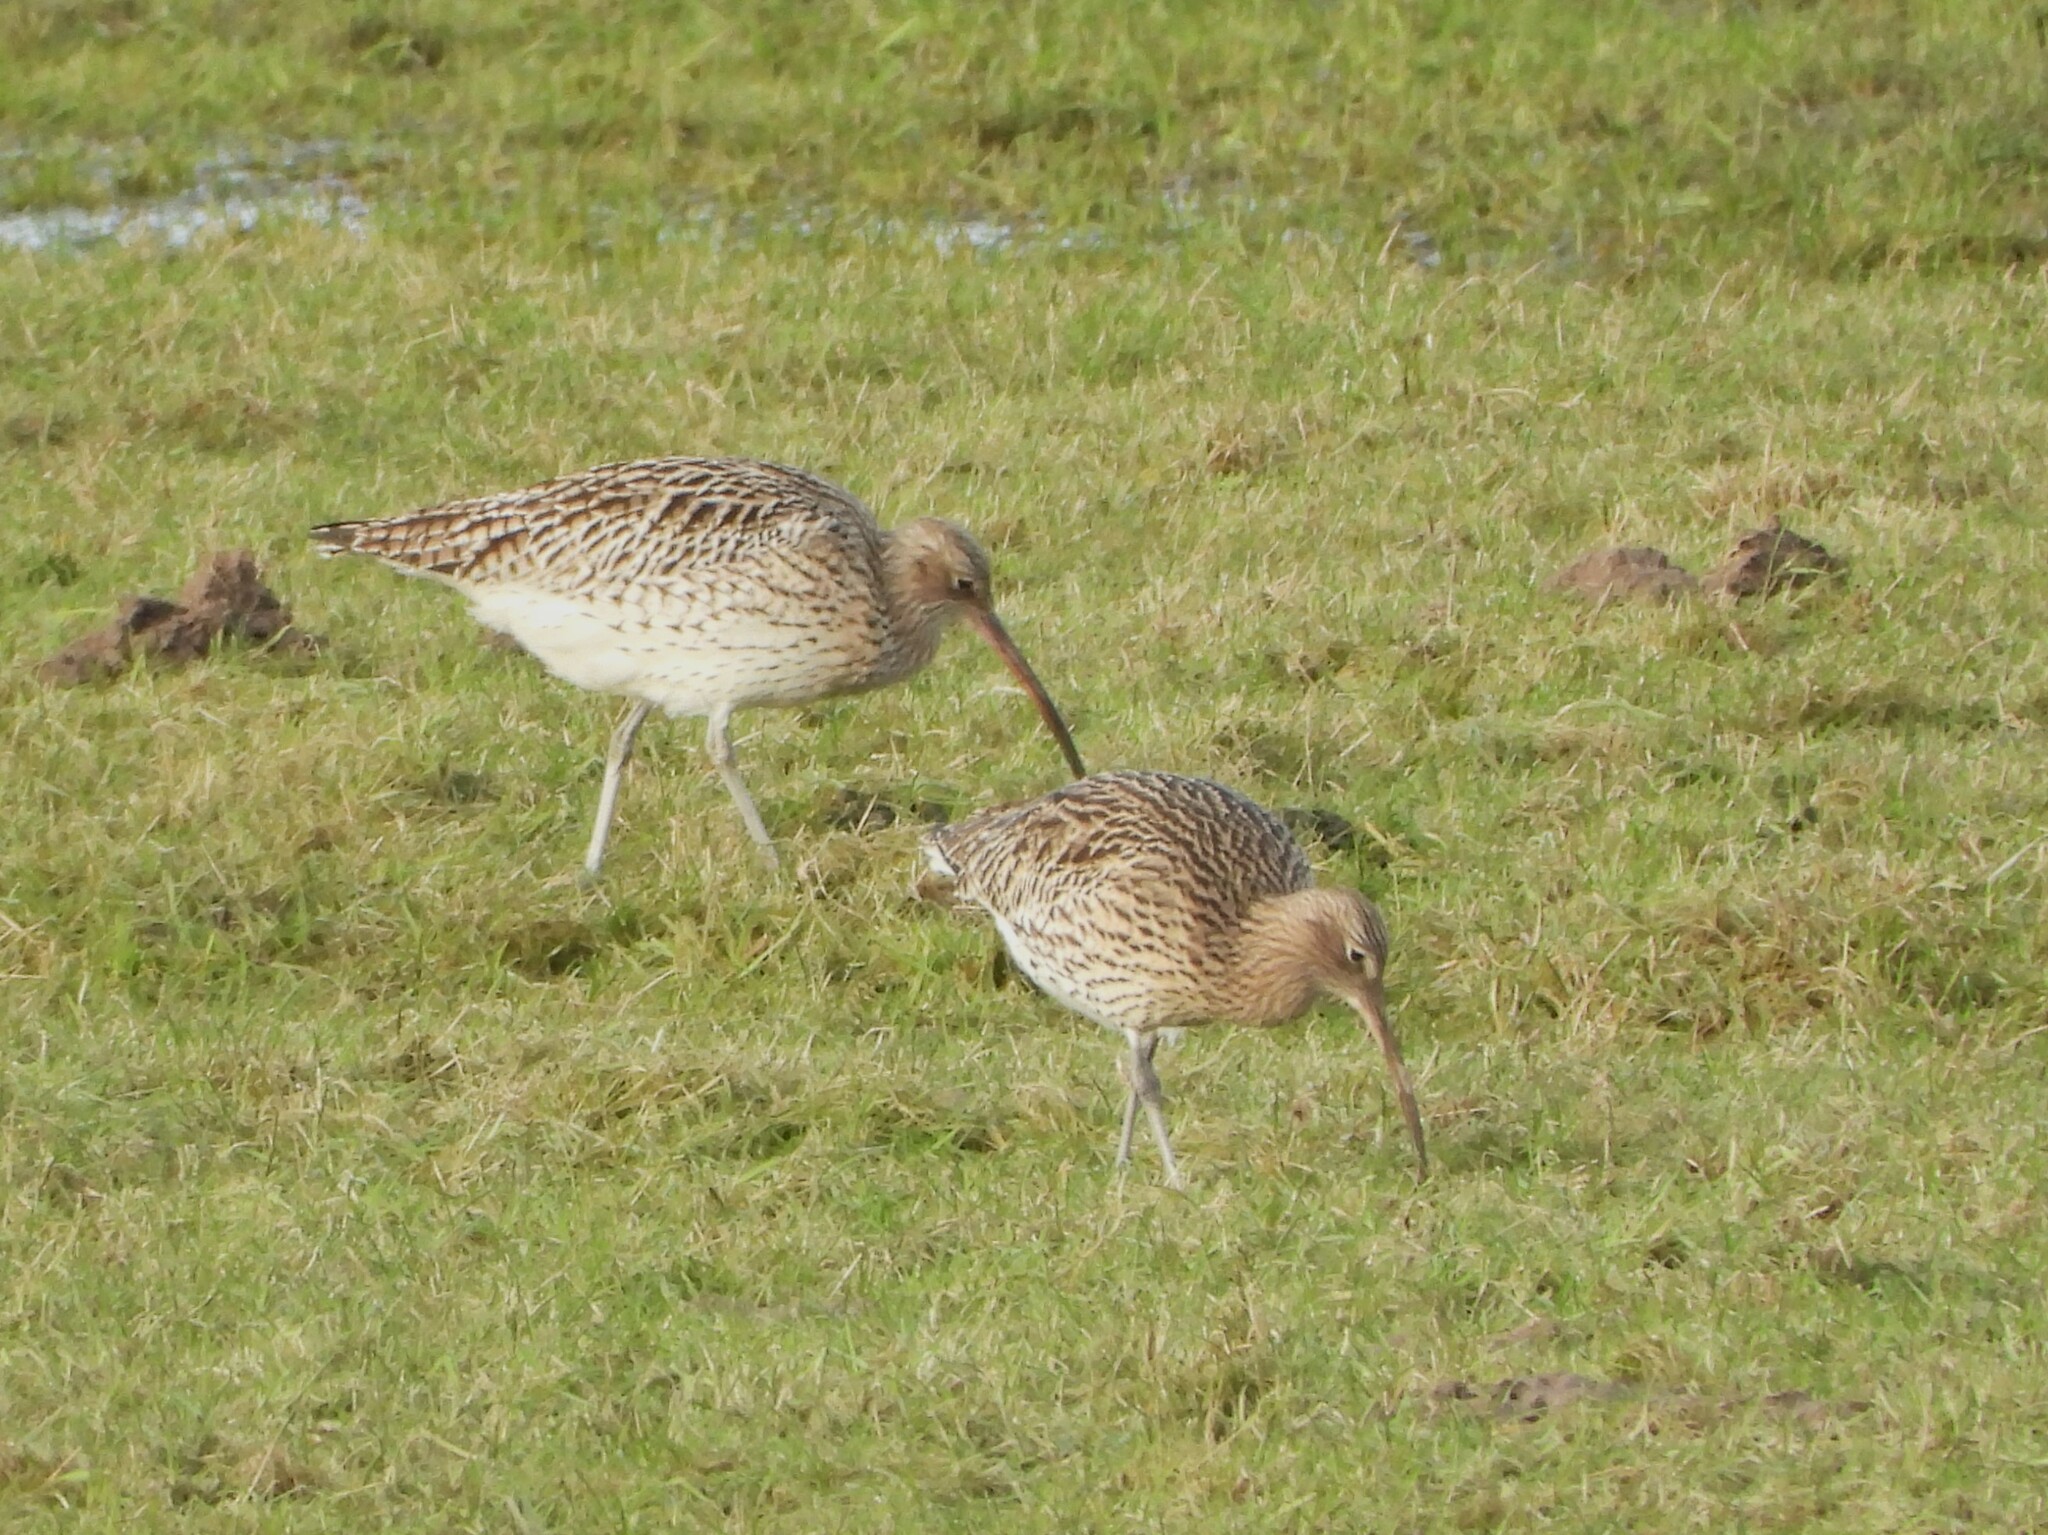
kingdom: Animalia
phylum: Chordata
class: Aves
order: Charadriiformes
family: Scolopacidae
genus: Numenius
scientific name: Numenius arquata
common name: Eurasian curlew
